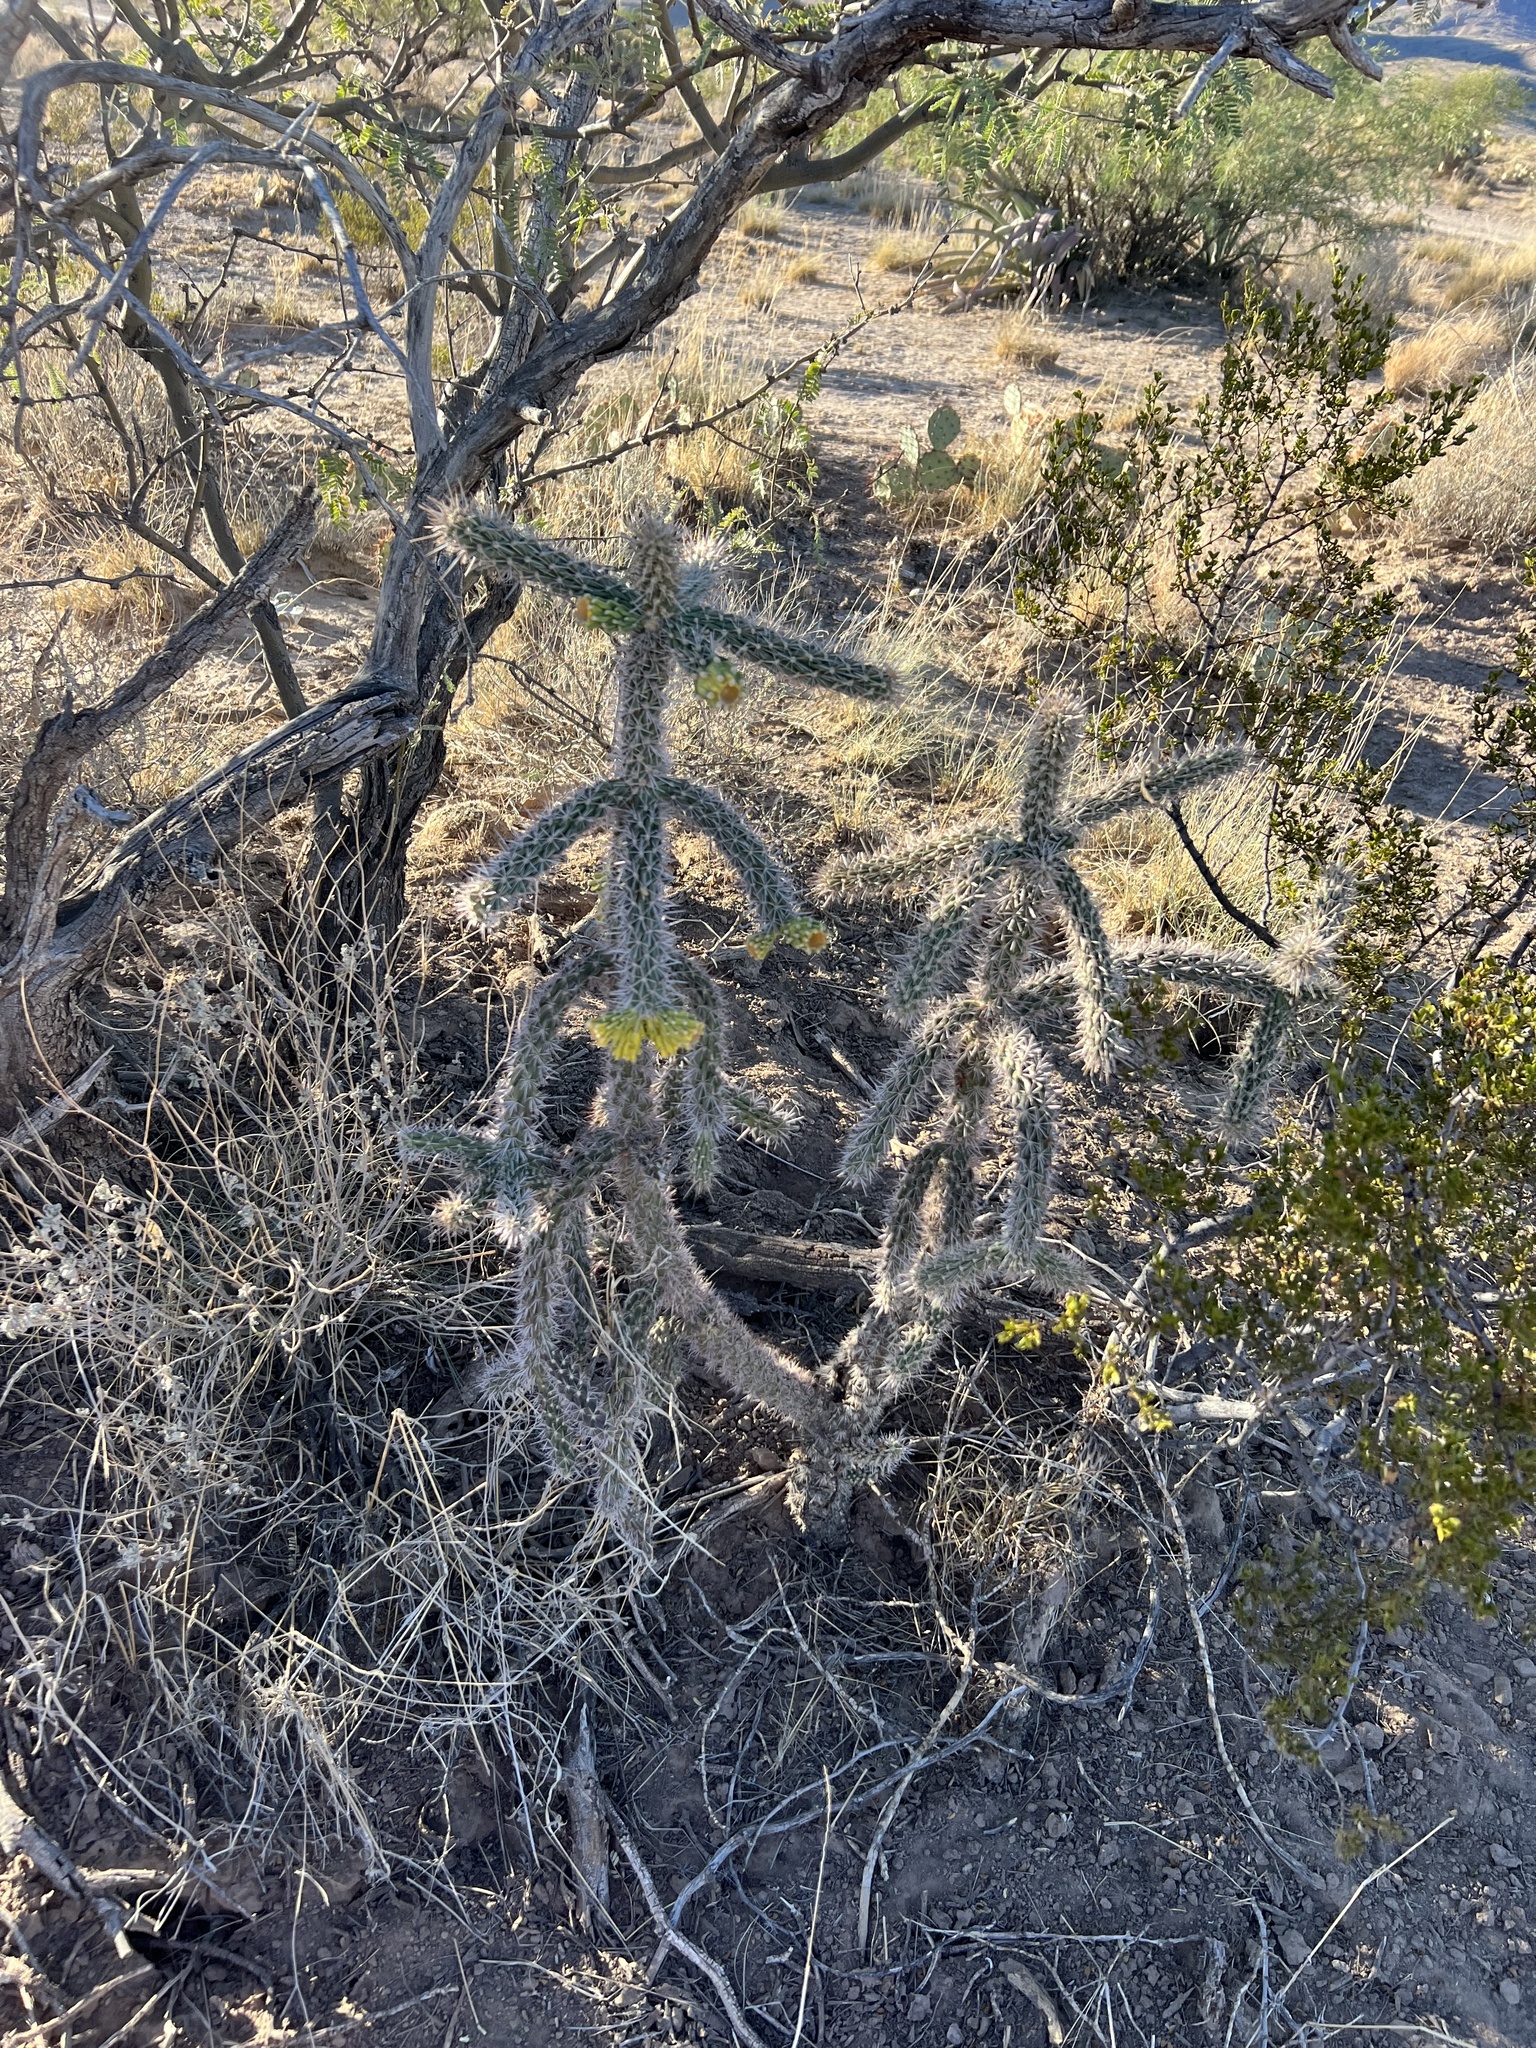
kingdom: Plantae
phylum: Tracheophyta
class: Magnoliopsida
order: Caryophyllales
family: Cactaceae
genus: Cylindropuntia
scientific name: Cylindropuntia imbricata
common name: Candelabrum cactus
